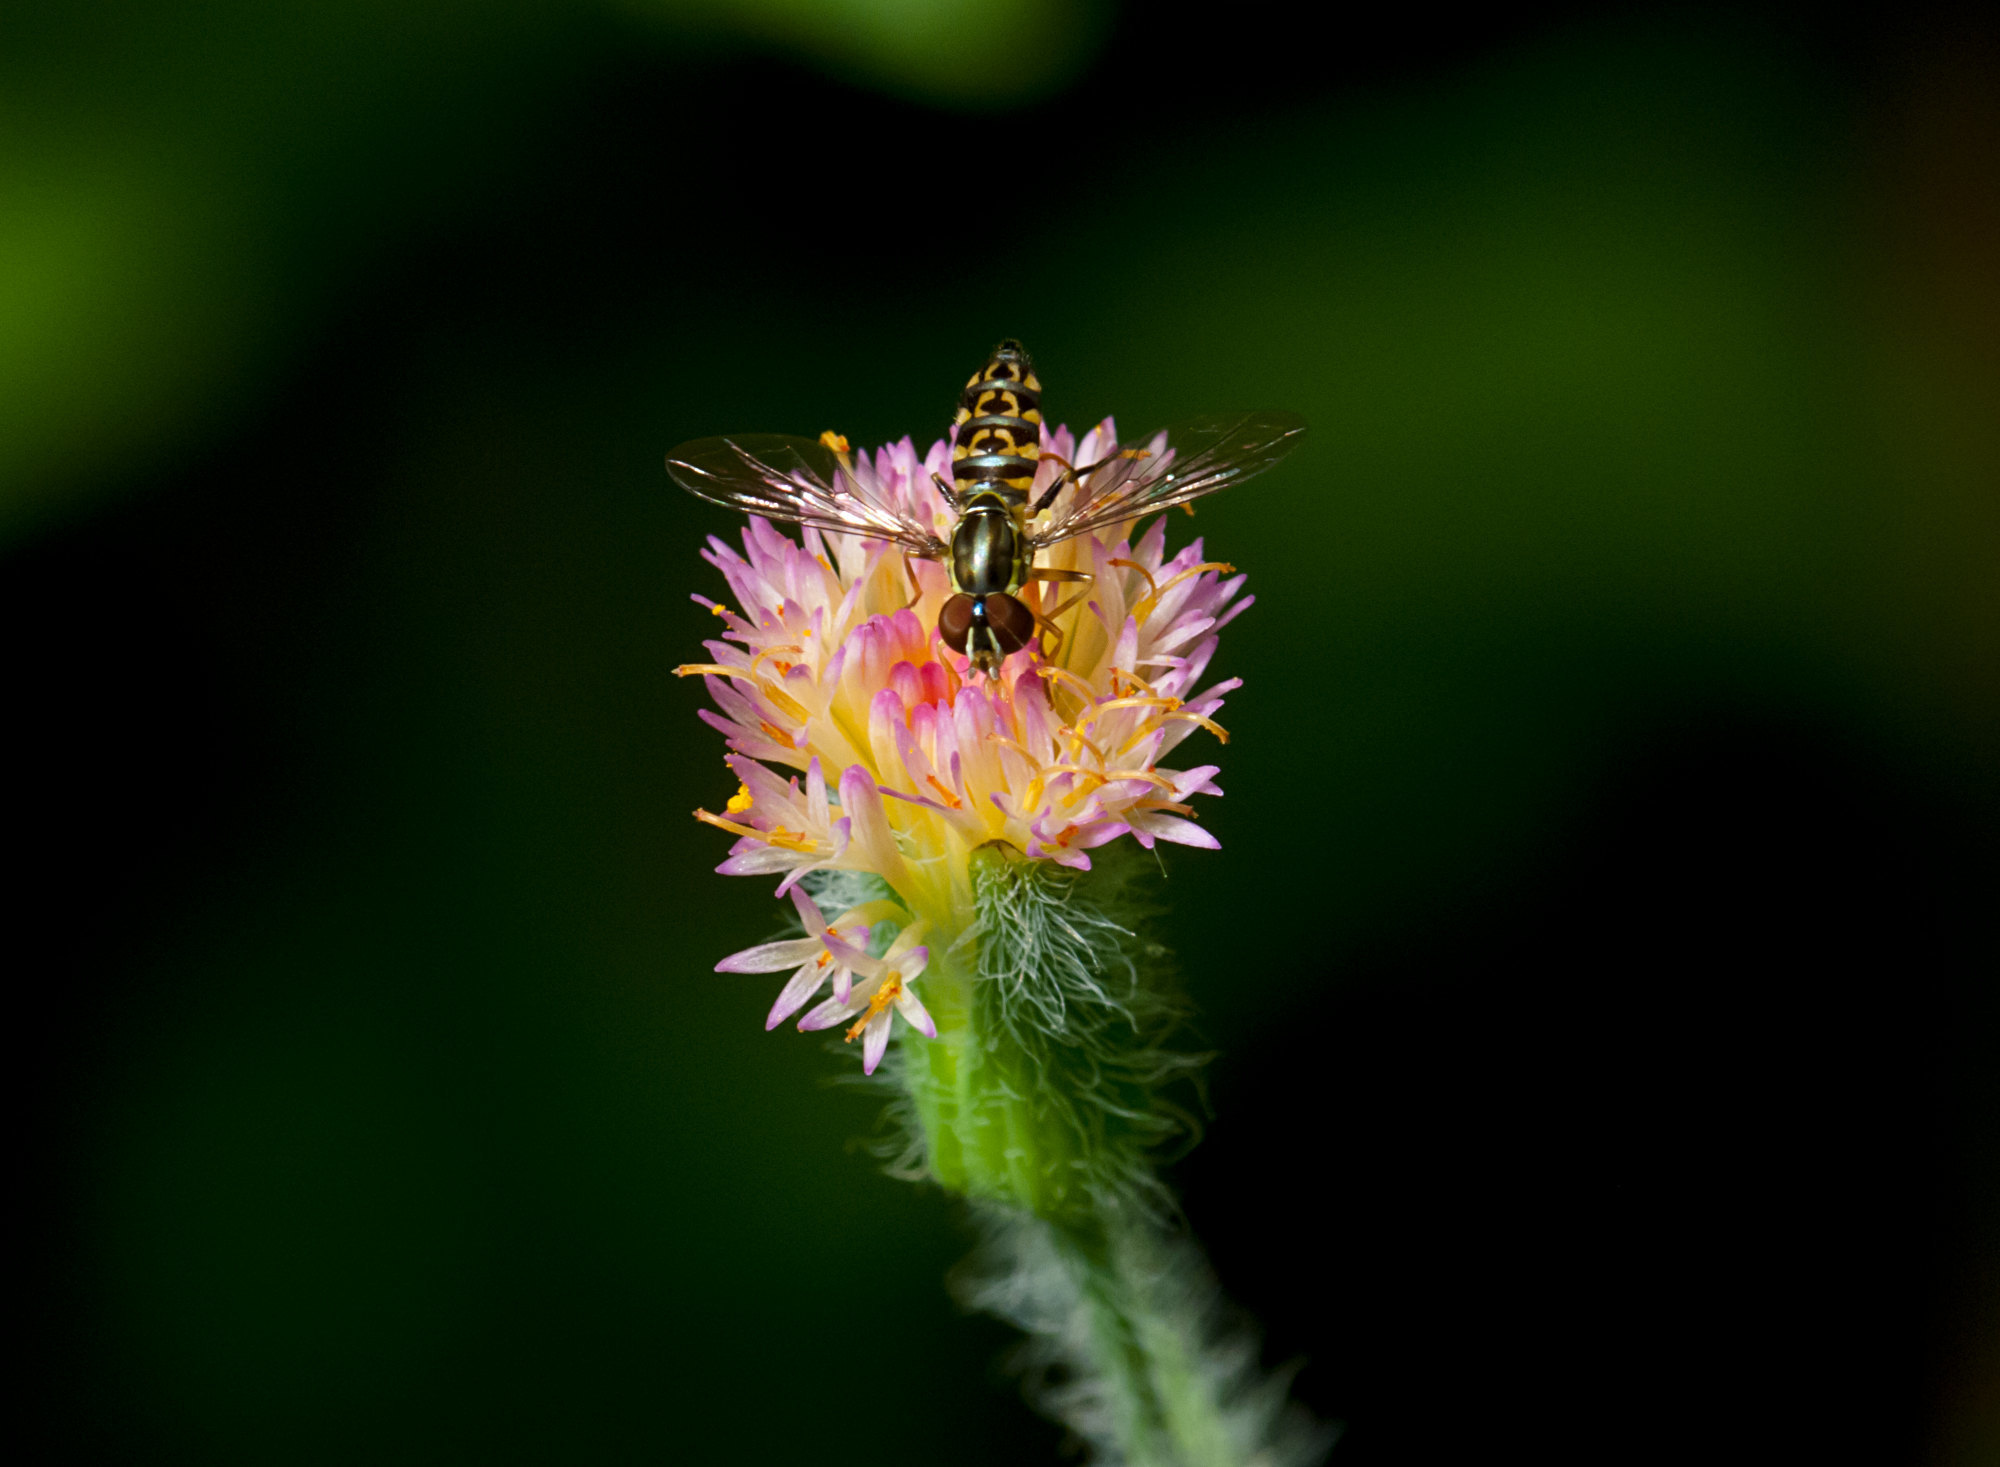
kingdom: Animalia
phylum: Arthropoda
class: Insecta
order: Diptera
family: Syrphidae
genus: Toxomerus
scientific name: Toxomerus virgulatus
